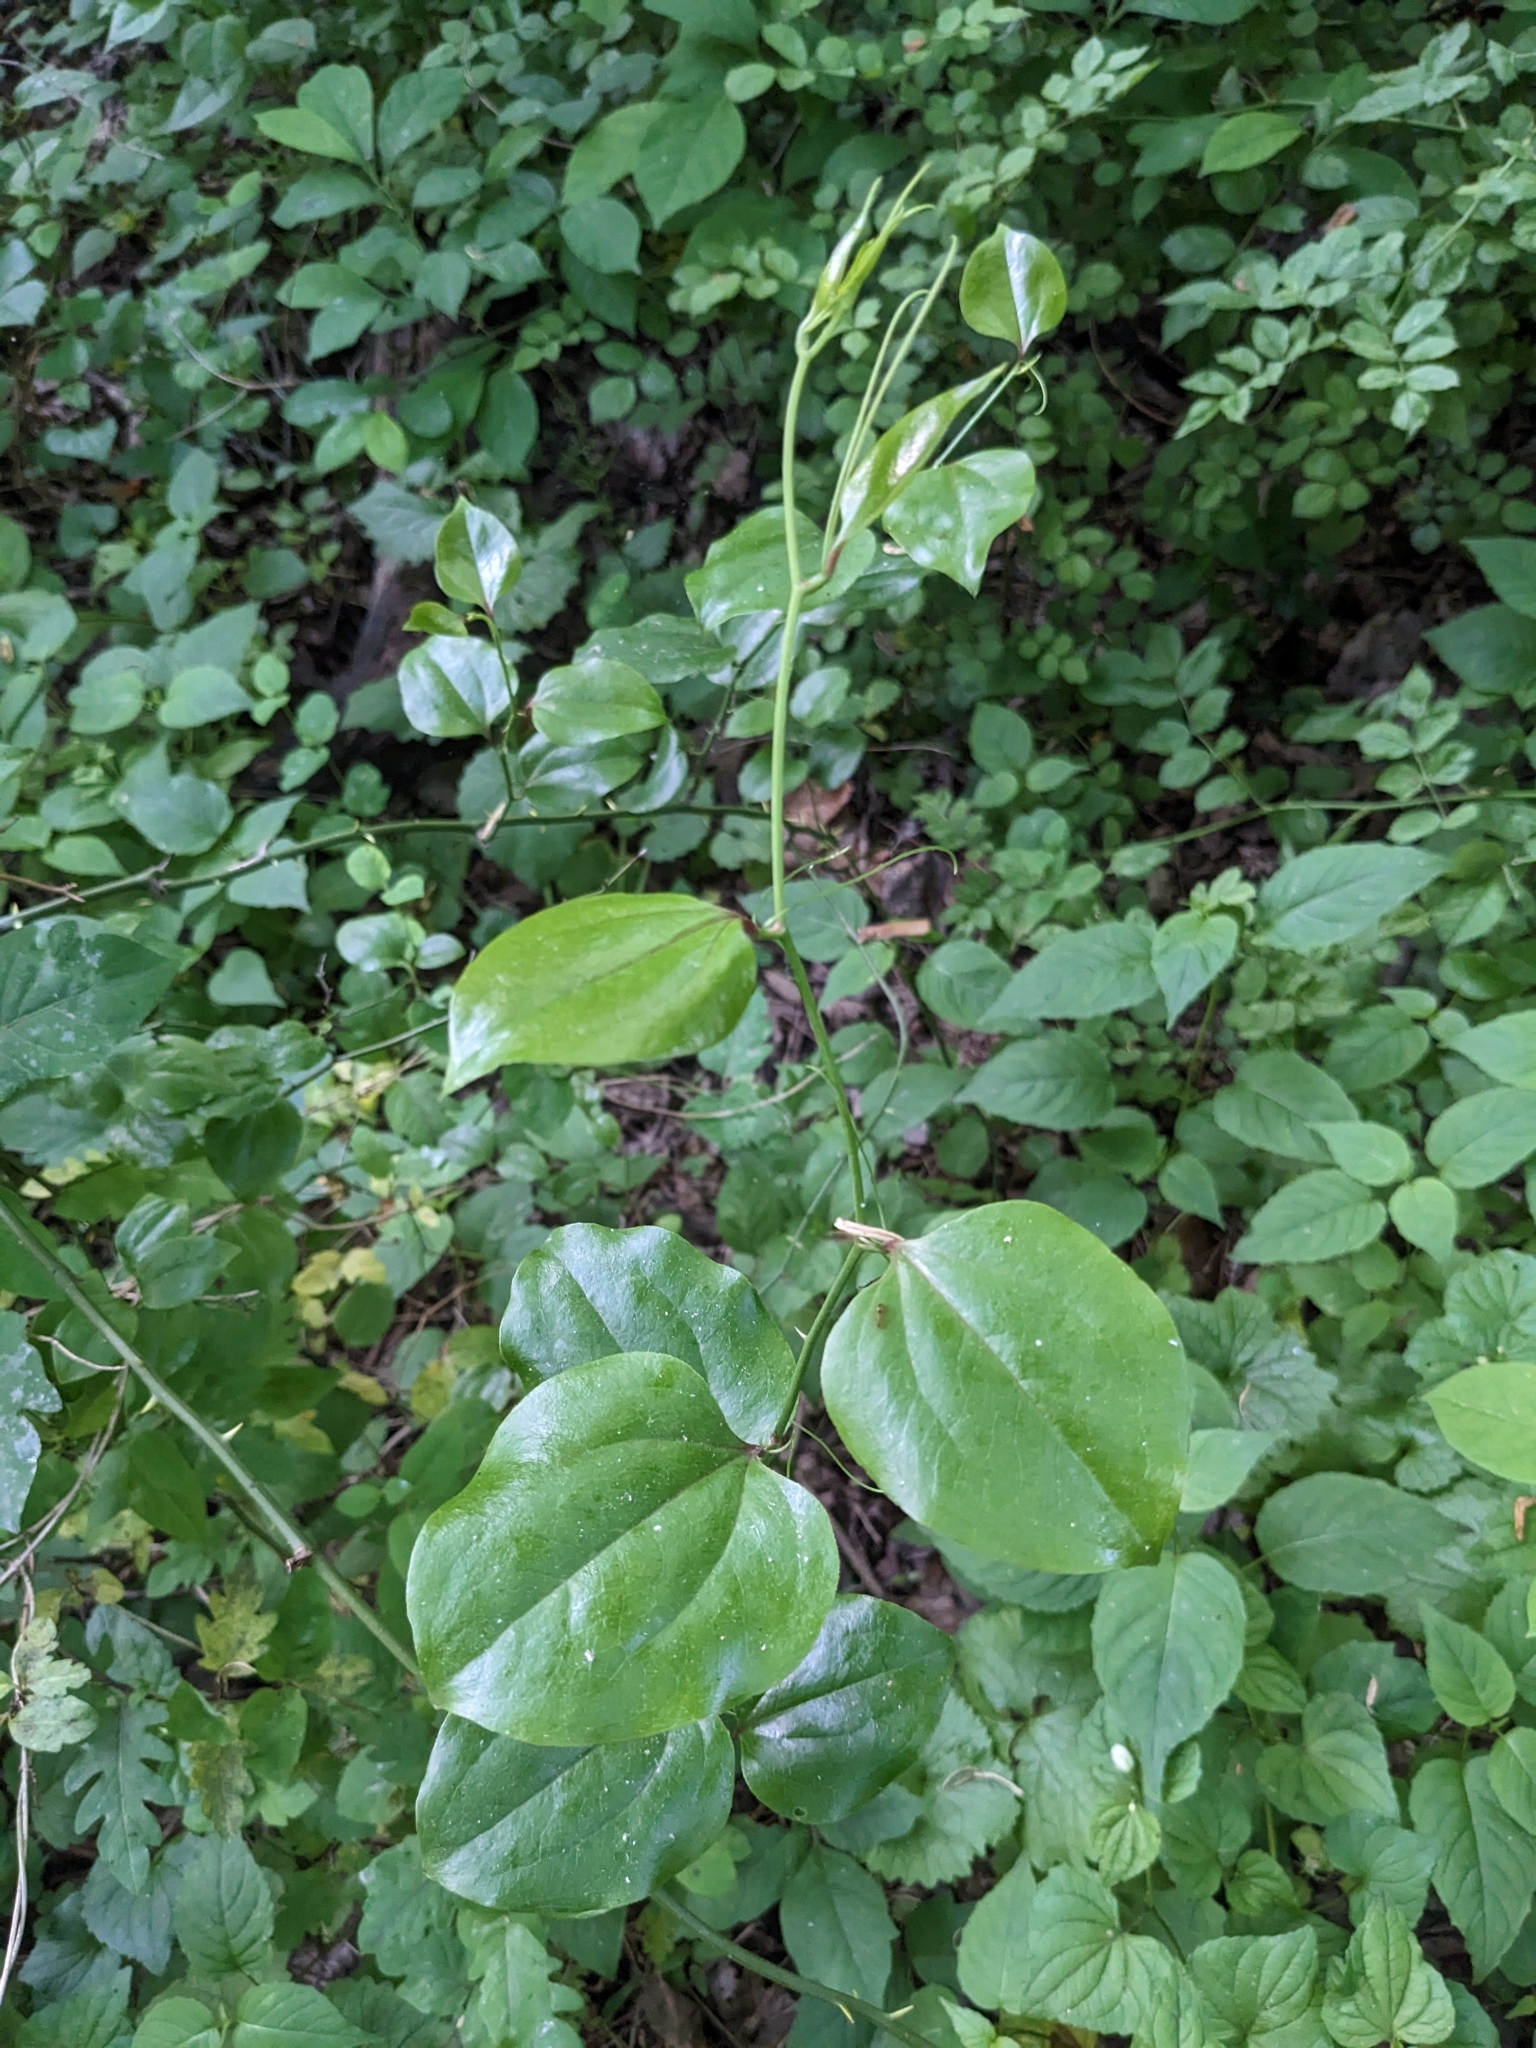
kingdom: Plantae
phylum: Tracheophyta
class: Liliopsida
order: Liliales
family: Smilacaceae
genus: Smilax
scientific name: Smilax rotundifolia
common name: Bullbriar
